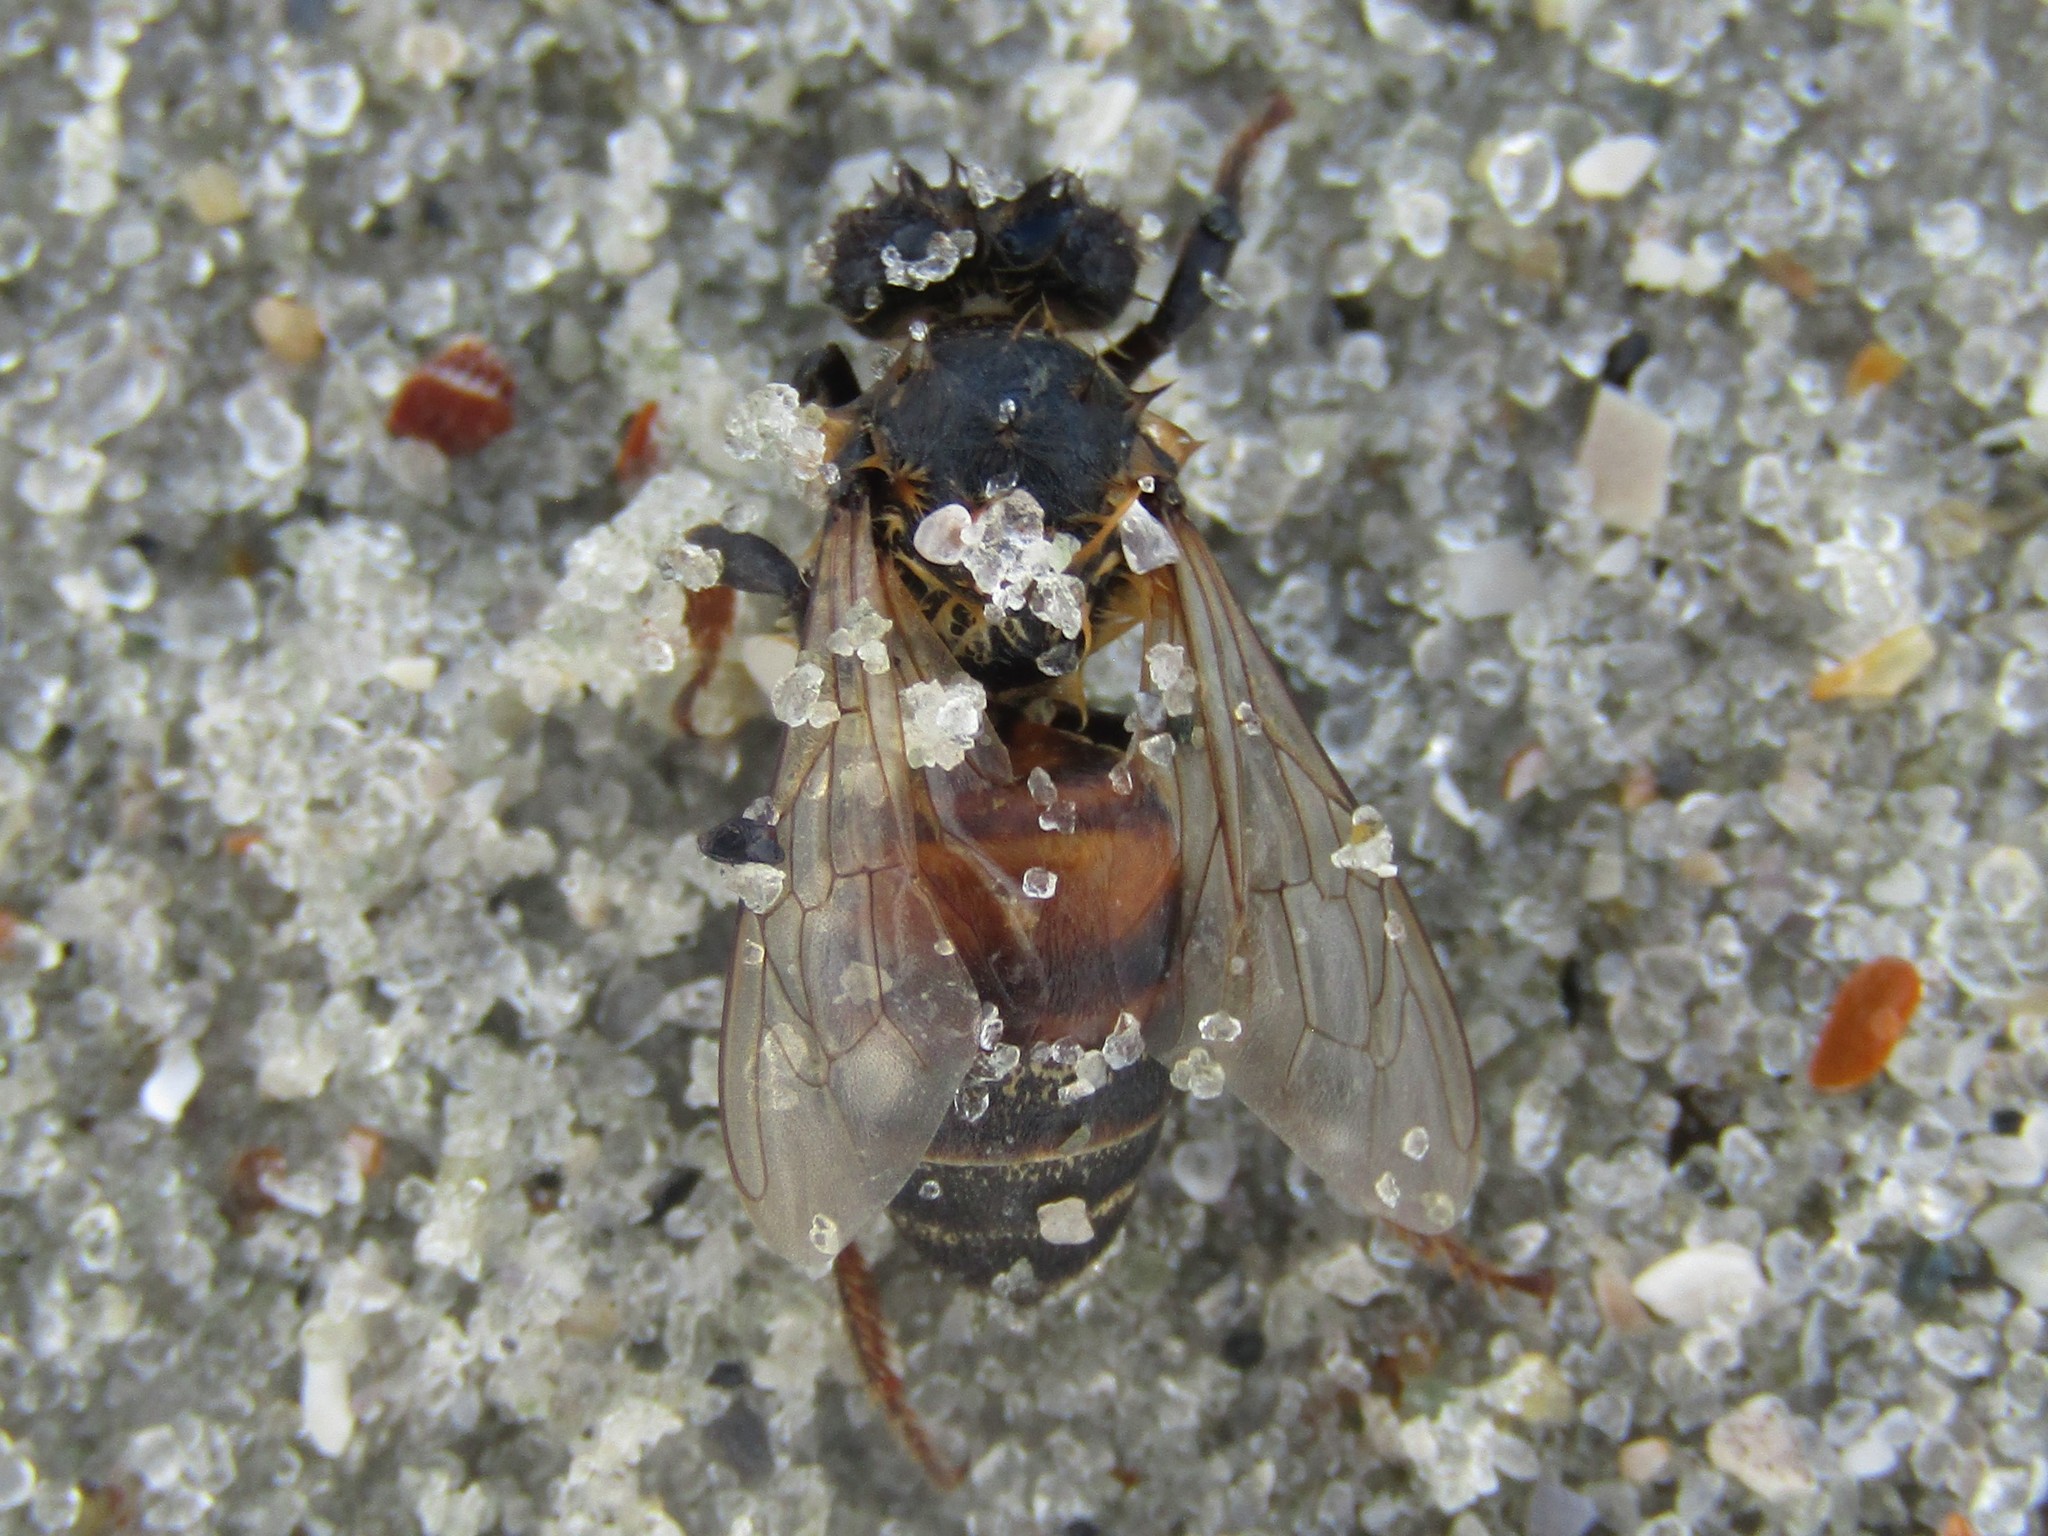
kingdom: Animalia
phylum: Arthropoda
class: Insecta
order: Hymenoptera
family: Apidae
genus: Apis
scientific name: Apis mellifera
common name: Honey bee
